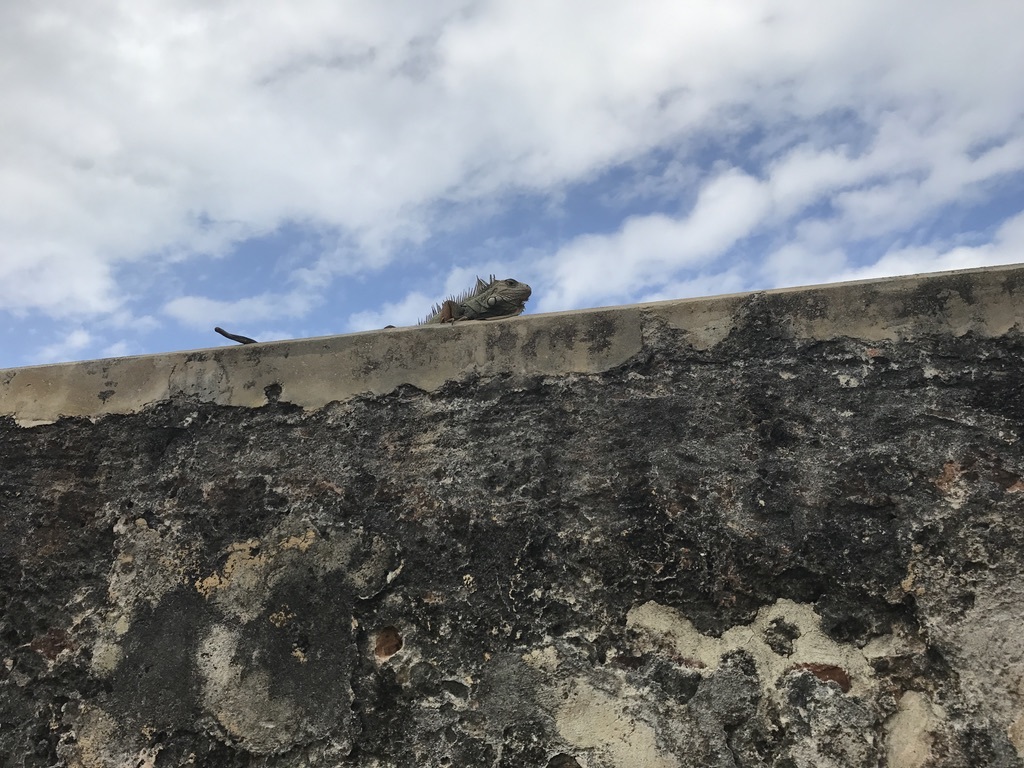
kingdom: Animalia
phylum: Chordata
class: Squamata
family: Iguanidae
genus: Iguana
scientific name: Iguana iguana
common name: Green iguana
